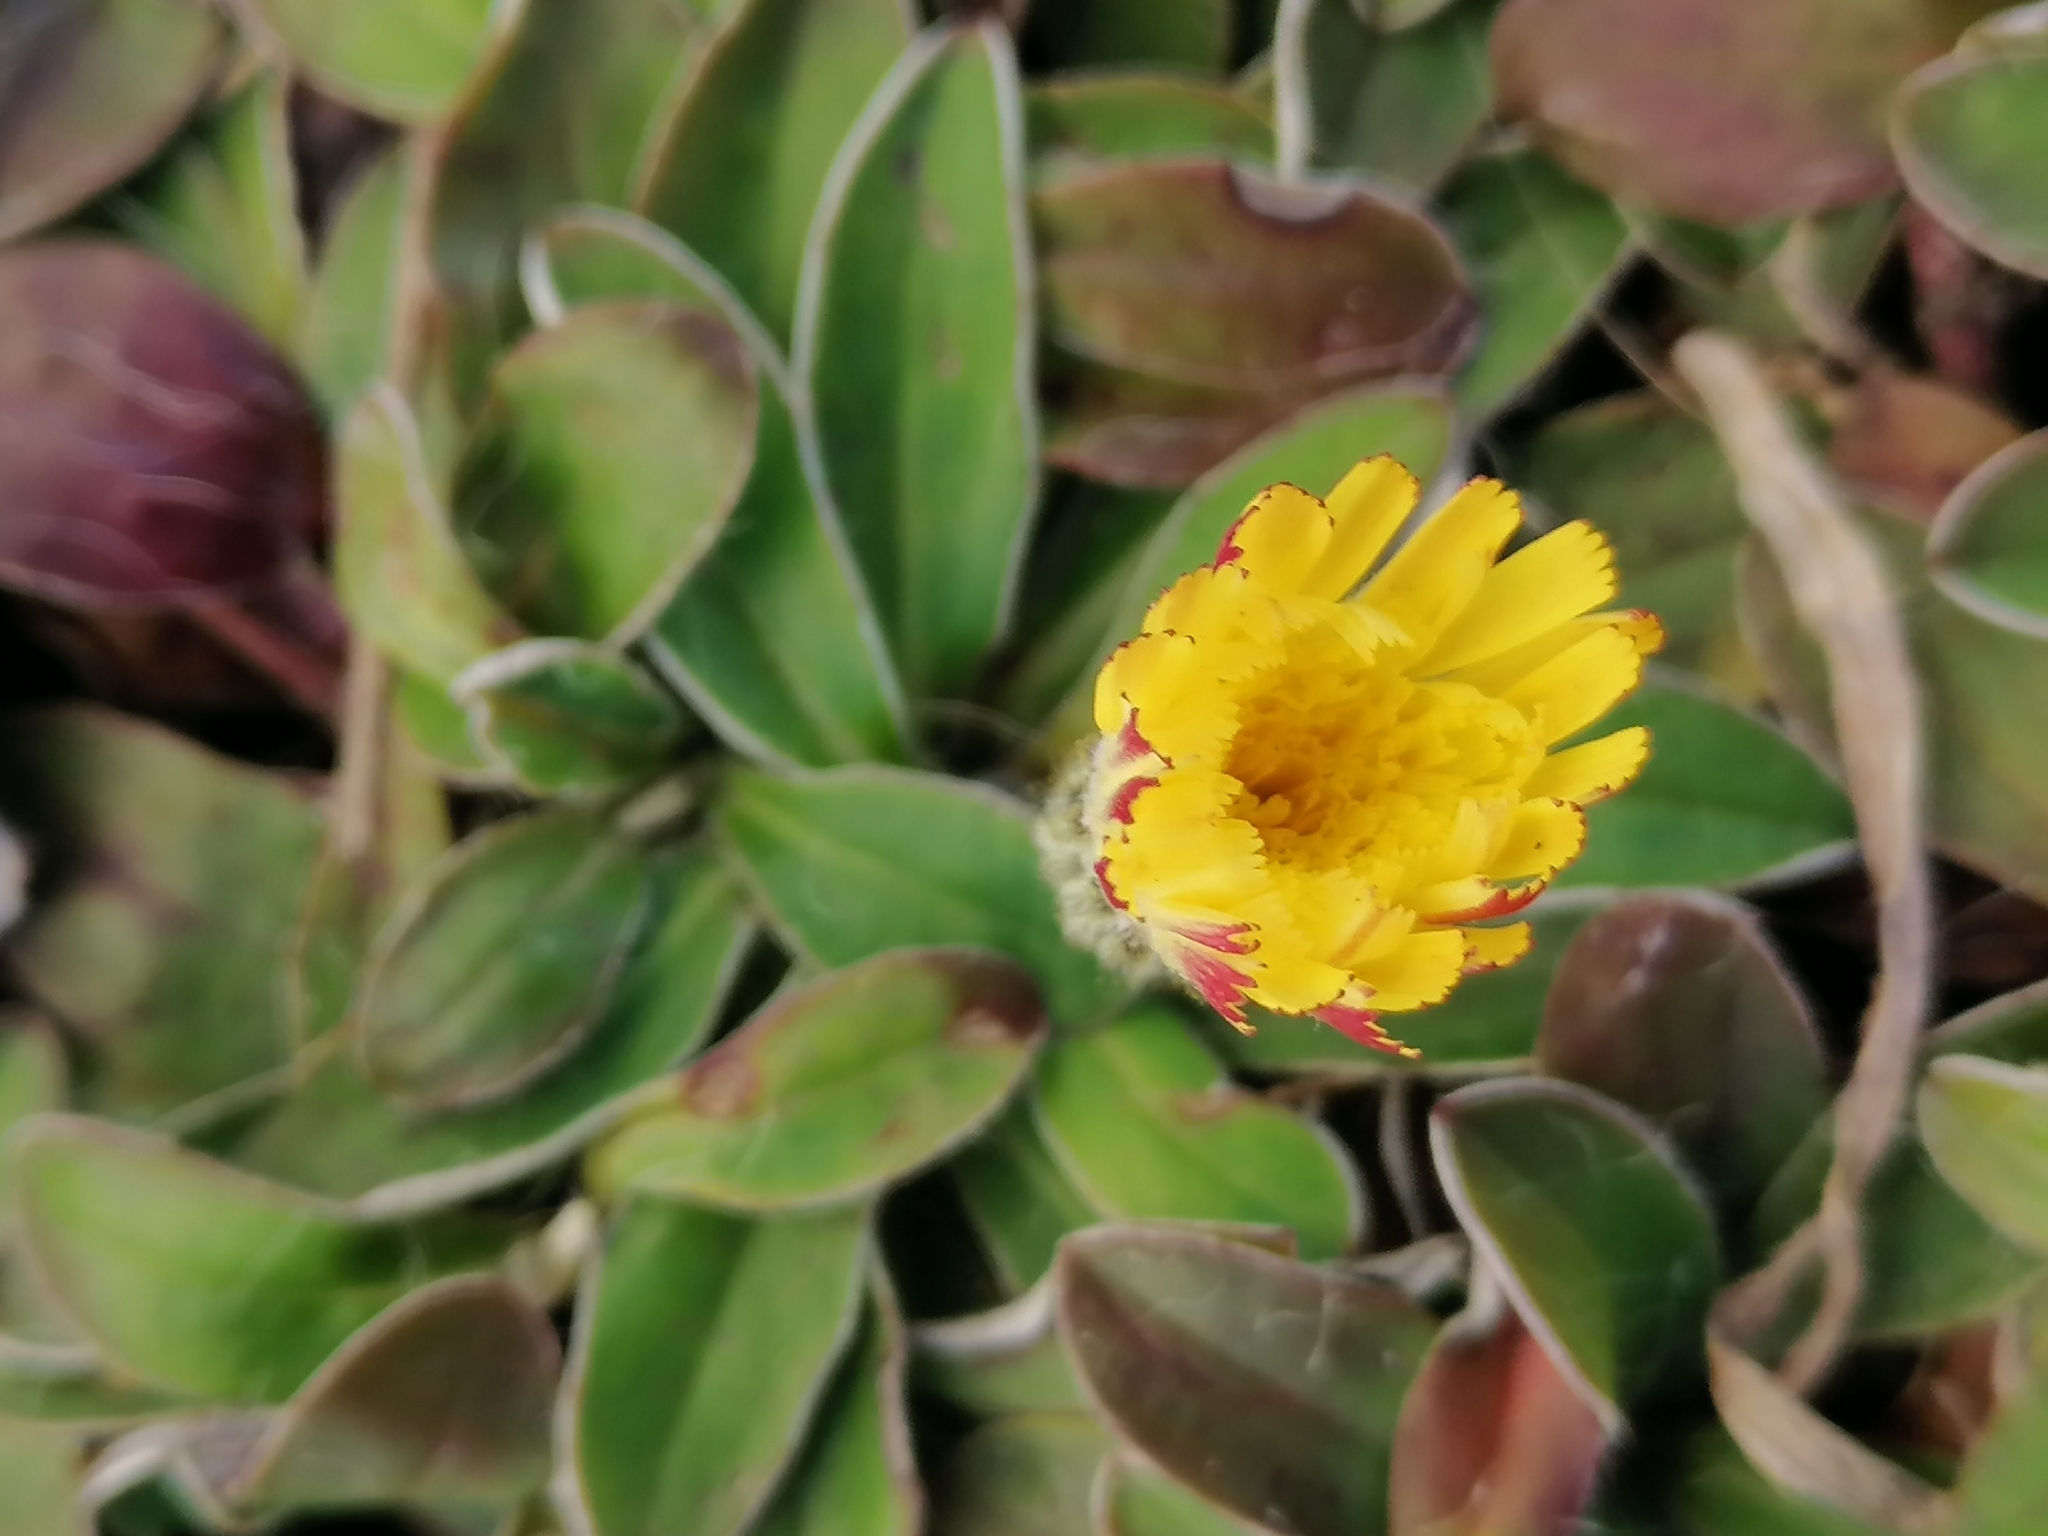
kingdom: Plantae
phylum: Tracheophyta
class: Magnoliopsida
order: Asterales
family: Asteraceae
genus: Pilosella
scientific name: Pilosella officinarum
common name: Mouse-ear hawkweed
